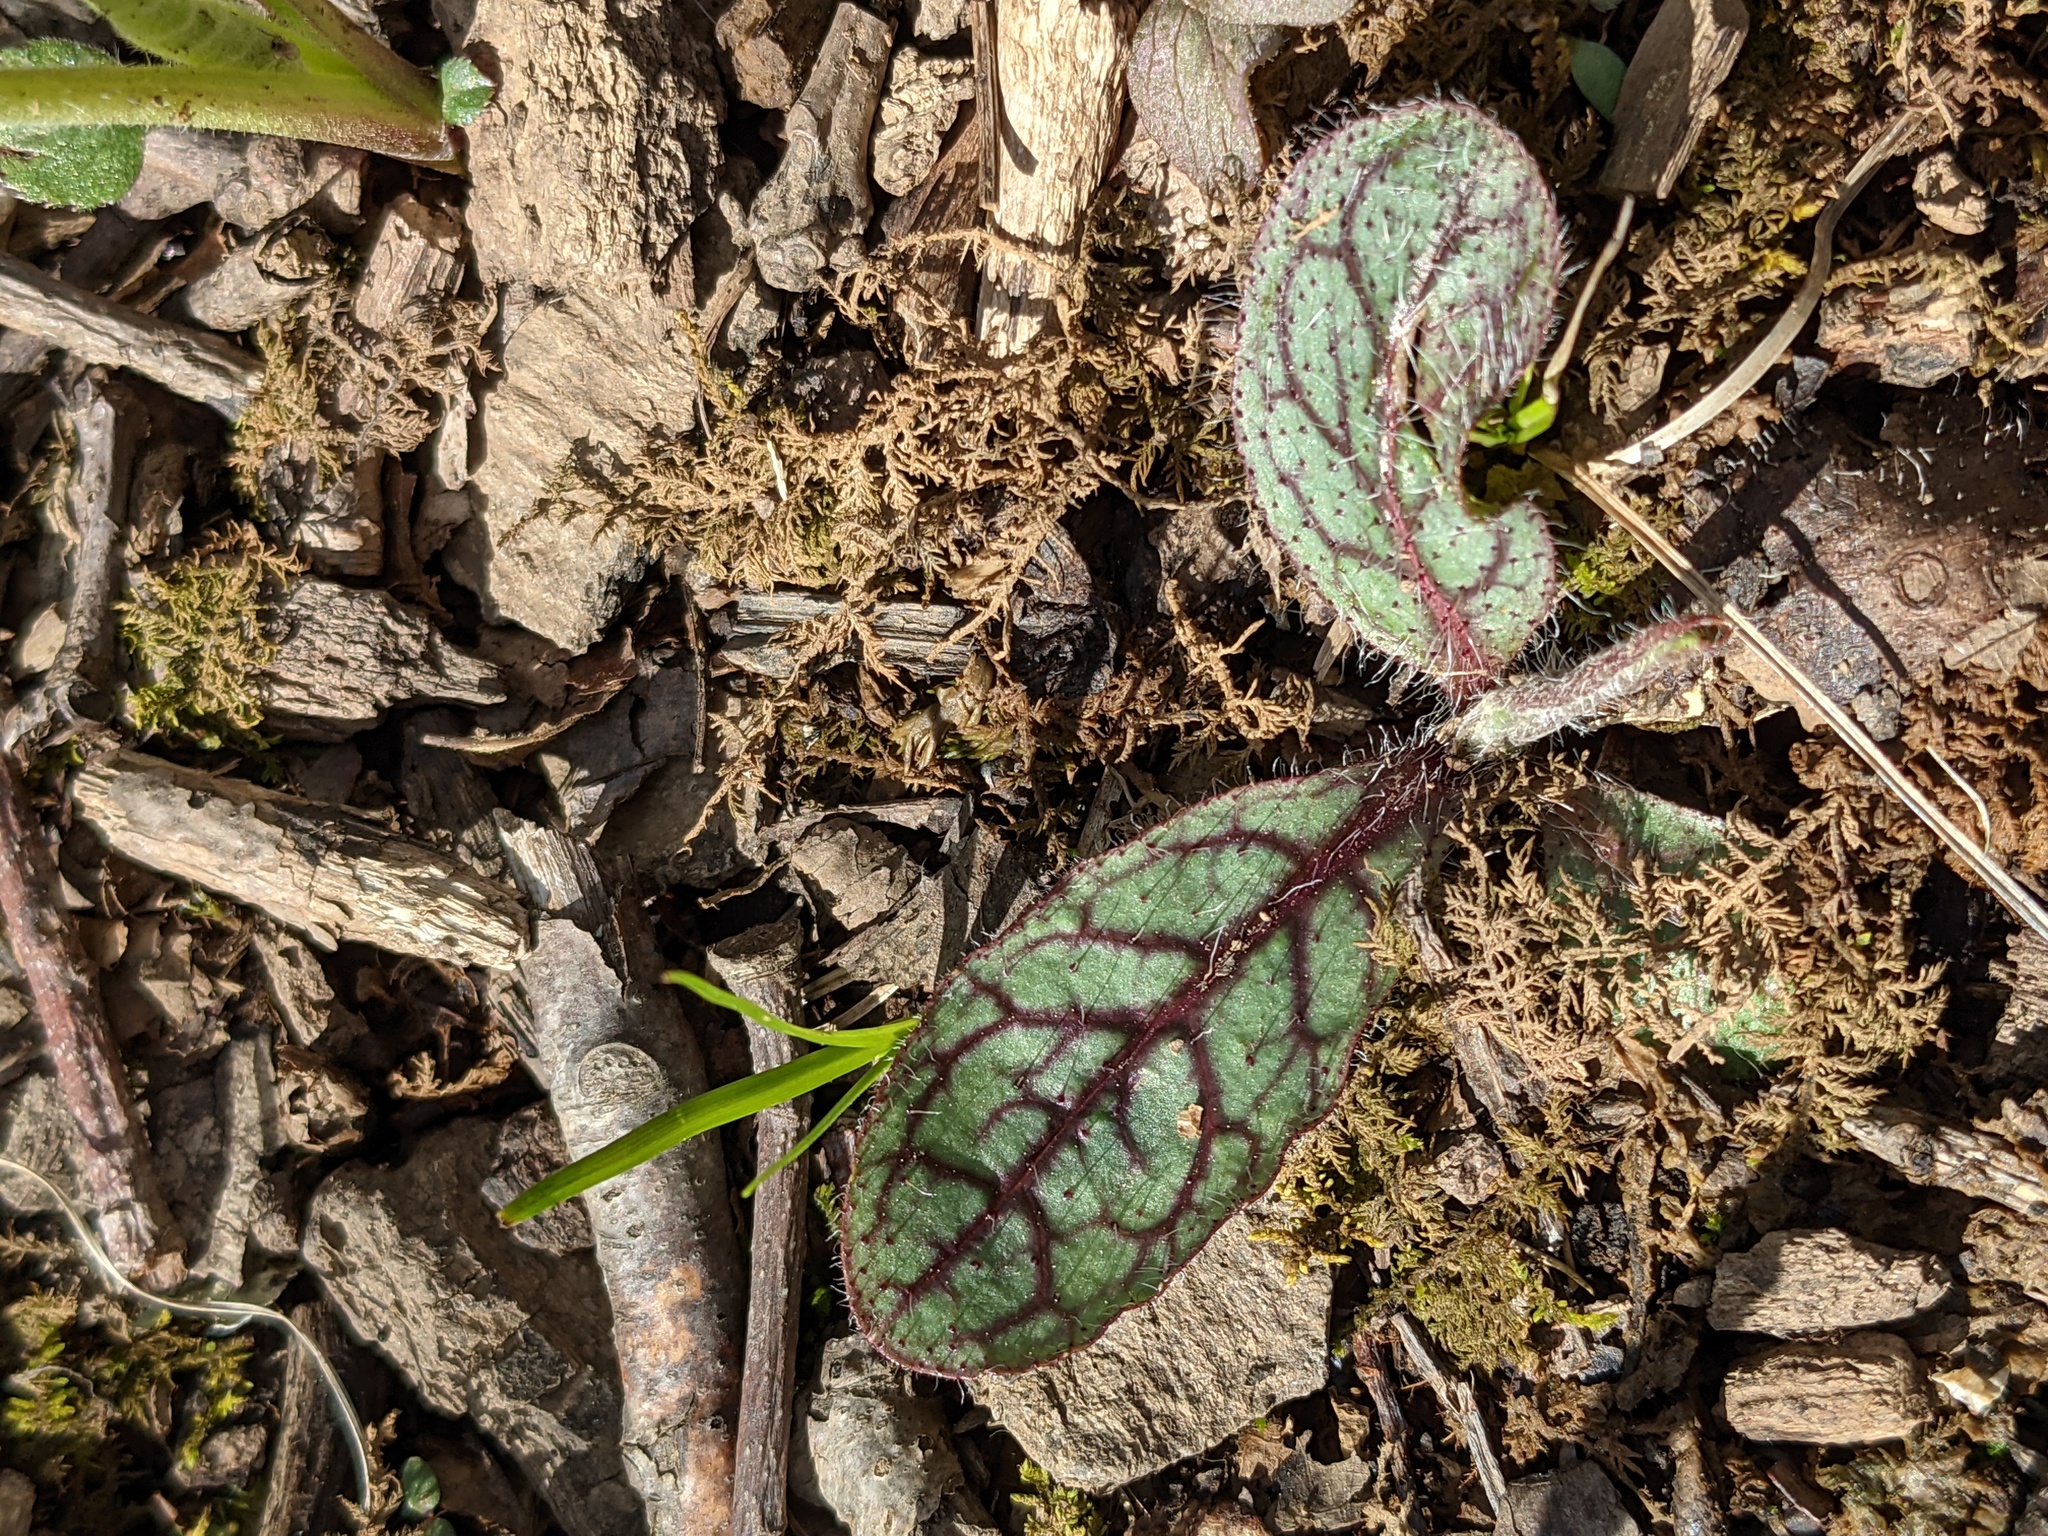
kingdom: Plantae
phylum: Tracheophyta
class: Magnoliopsida
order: Asterales
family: Asteraceae
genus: Hieracium
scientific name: Hieracium venosum
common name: Rattlesnake hawkweed
